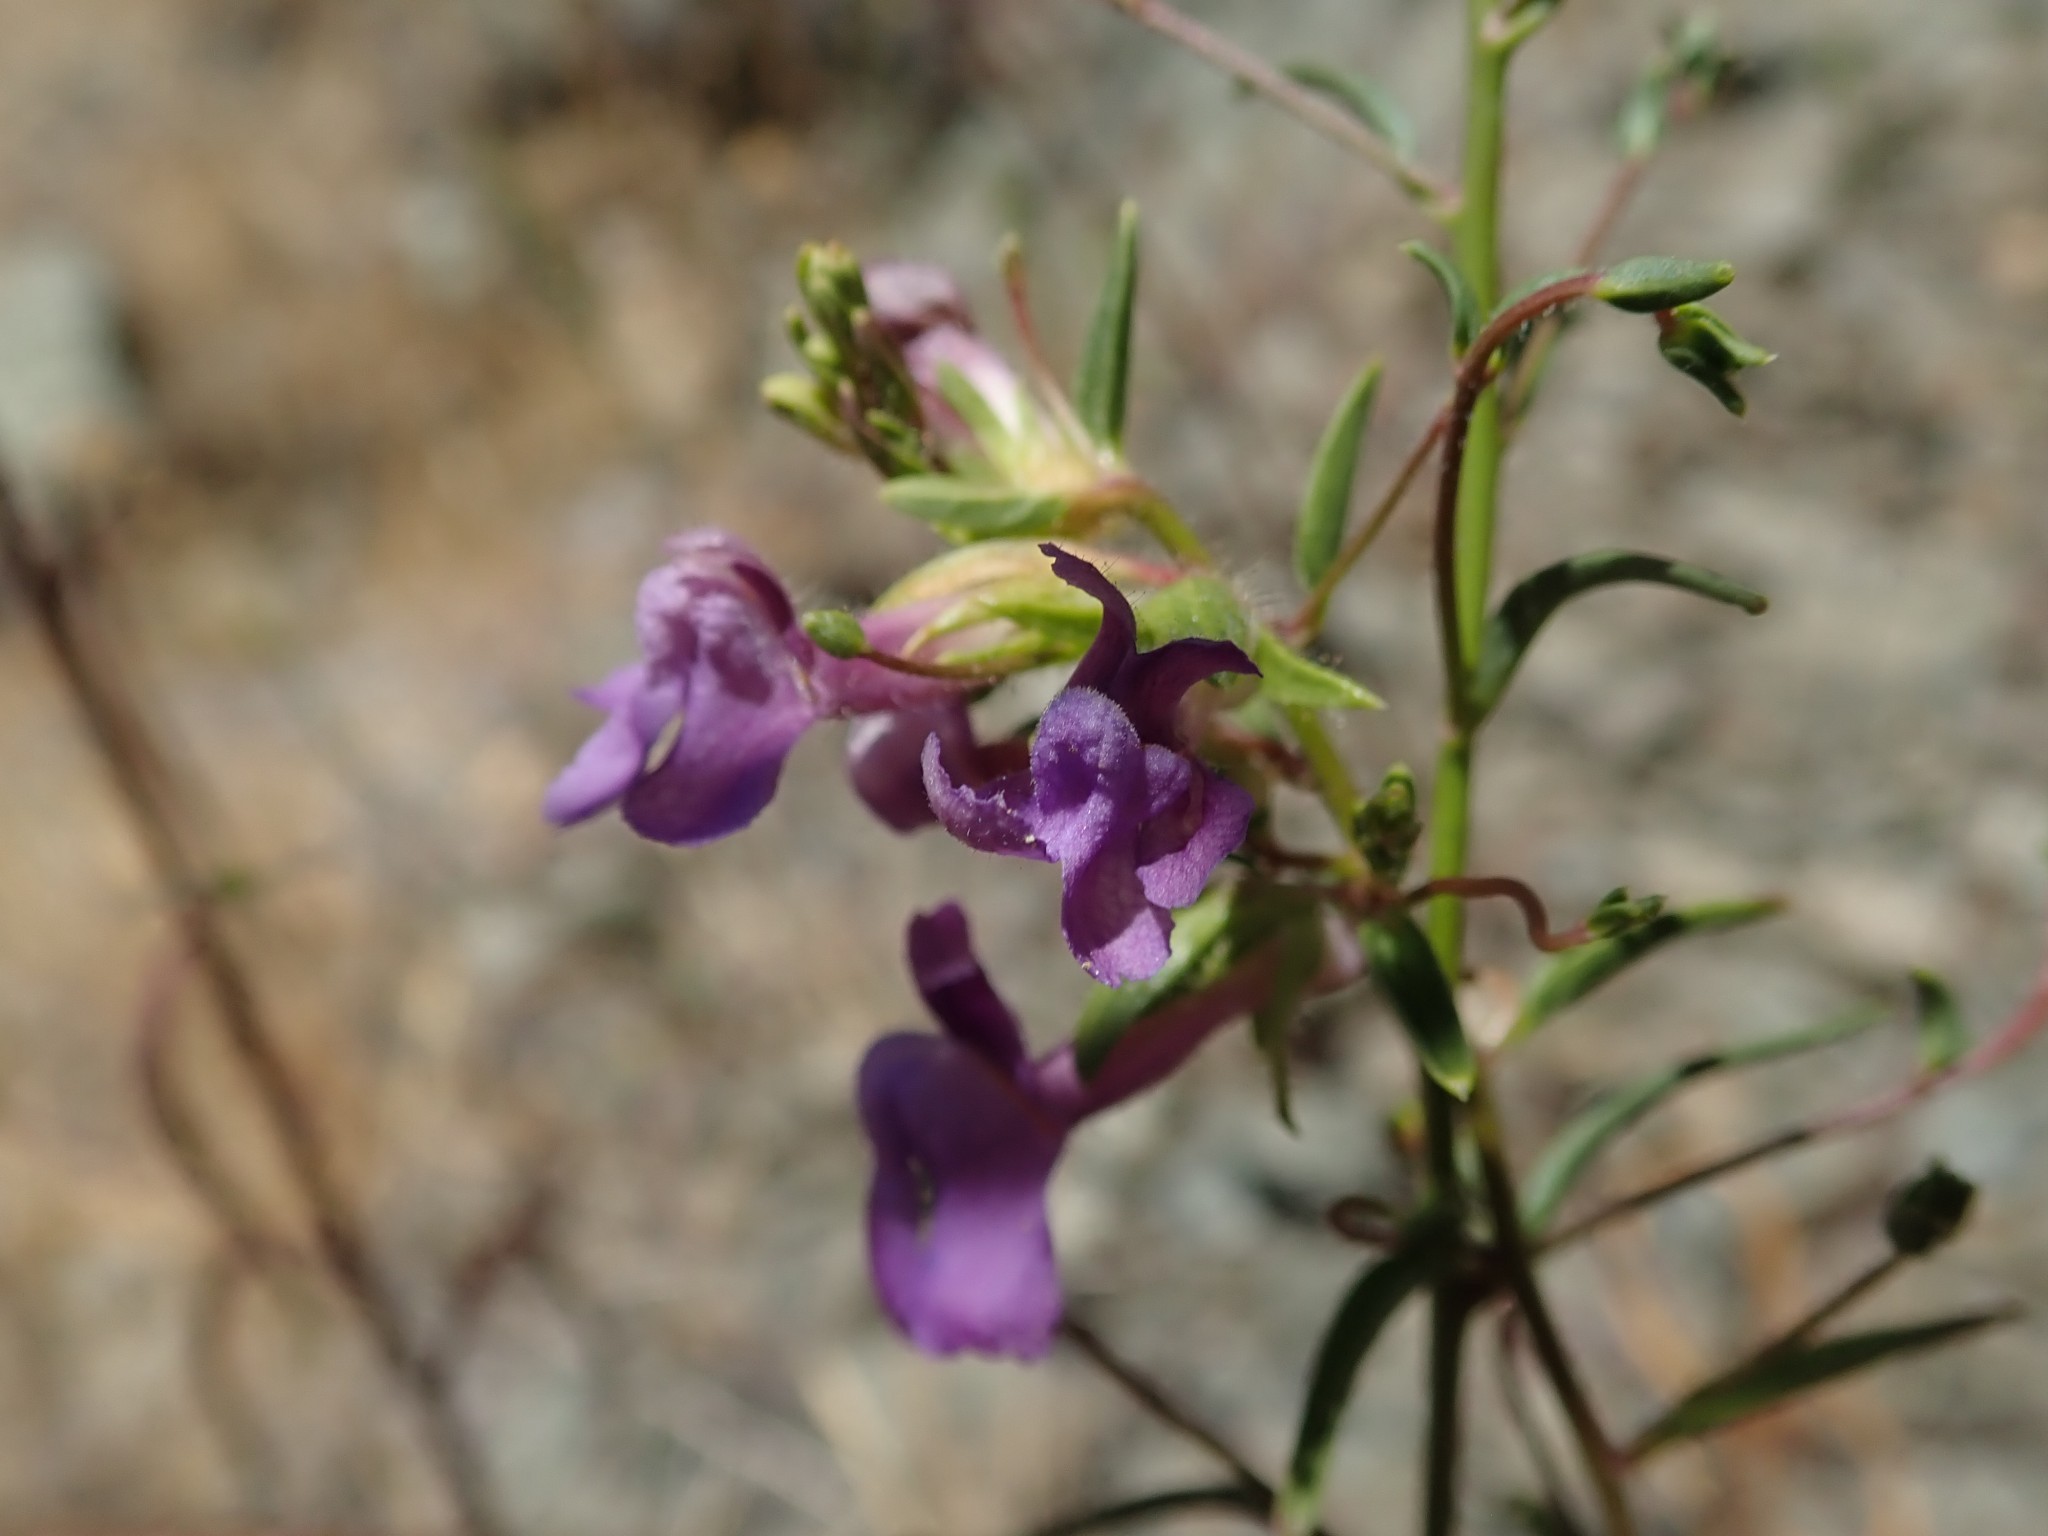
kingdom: Plantae
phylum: Tracheophyta
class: Magnoliopsida
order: Lamiales
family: Plantaginaceae
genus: Sairocarpus
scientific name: Sairocarpus vexillocalyculatus
